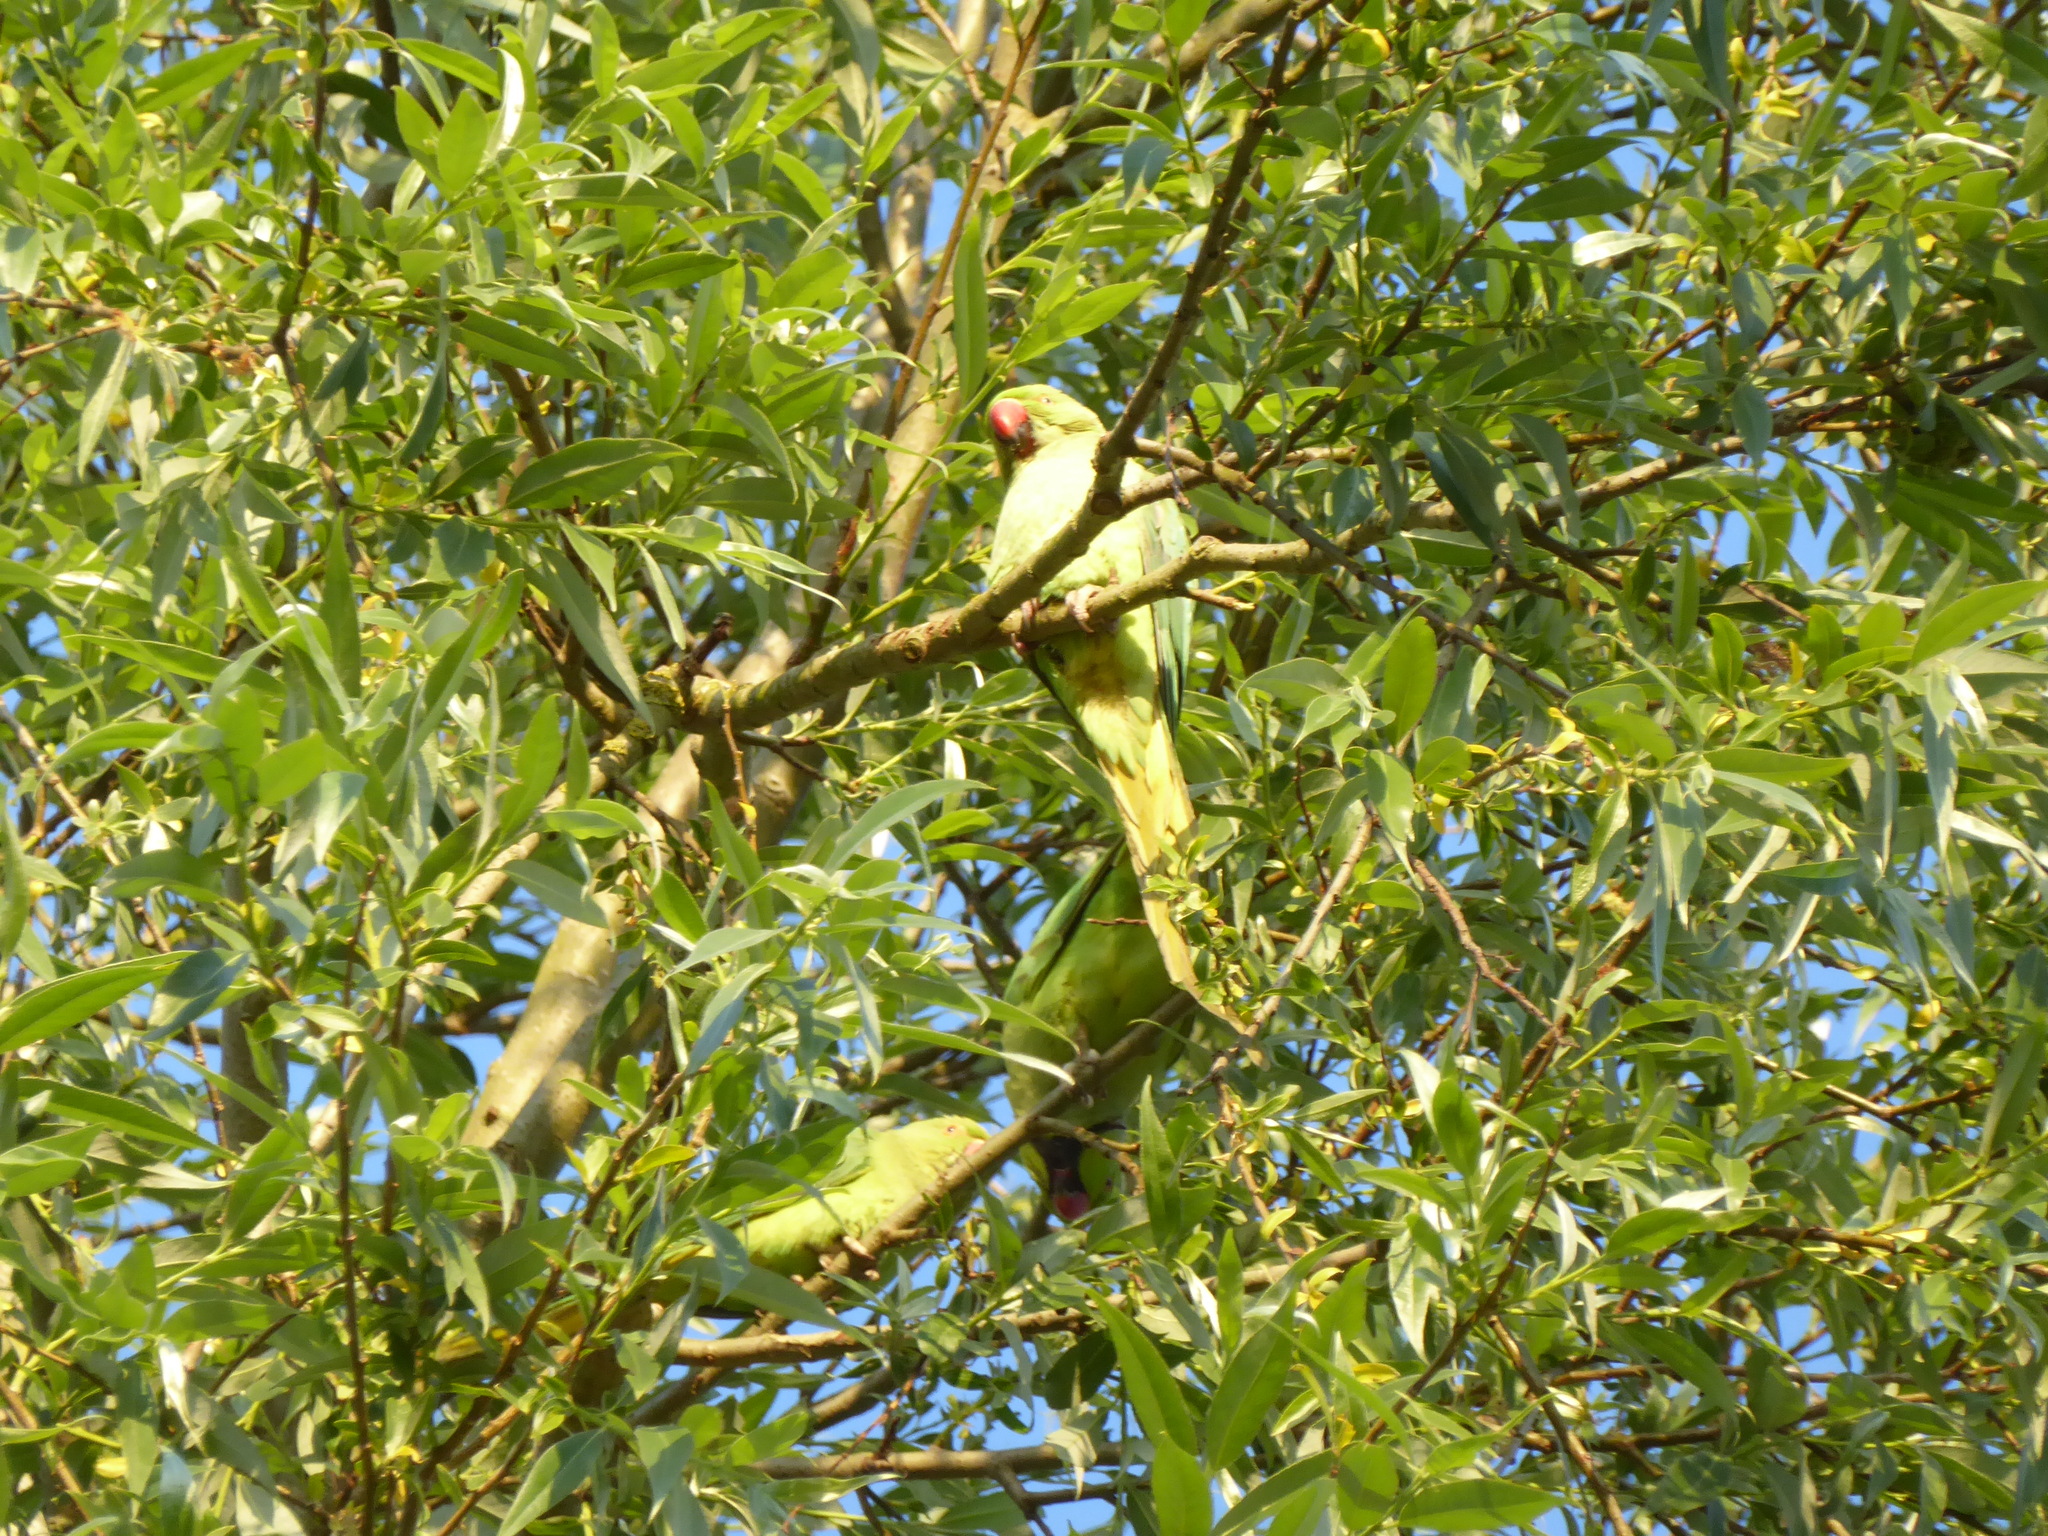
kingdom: Animalia
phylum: Chordata
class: Aves
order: Psittaciformes
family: Psittacidae
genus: Psittacula
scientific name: Psittacula krameri
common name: Rose-ringed parakeet
